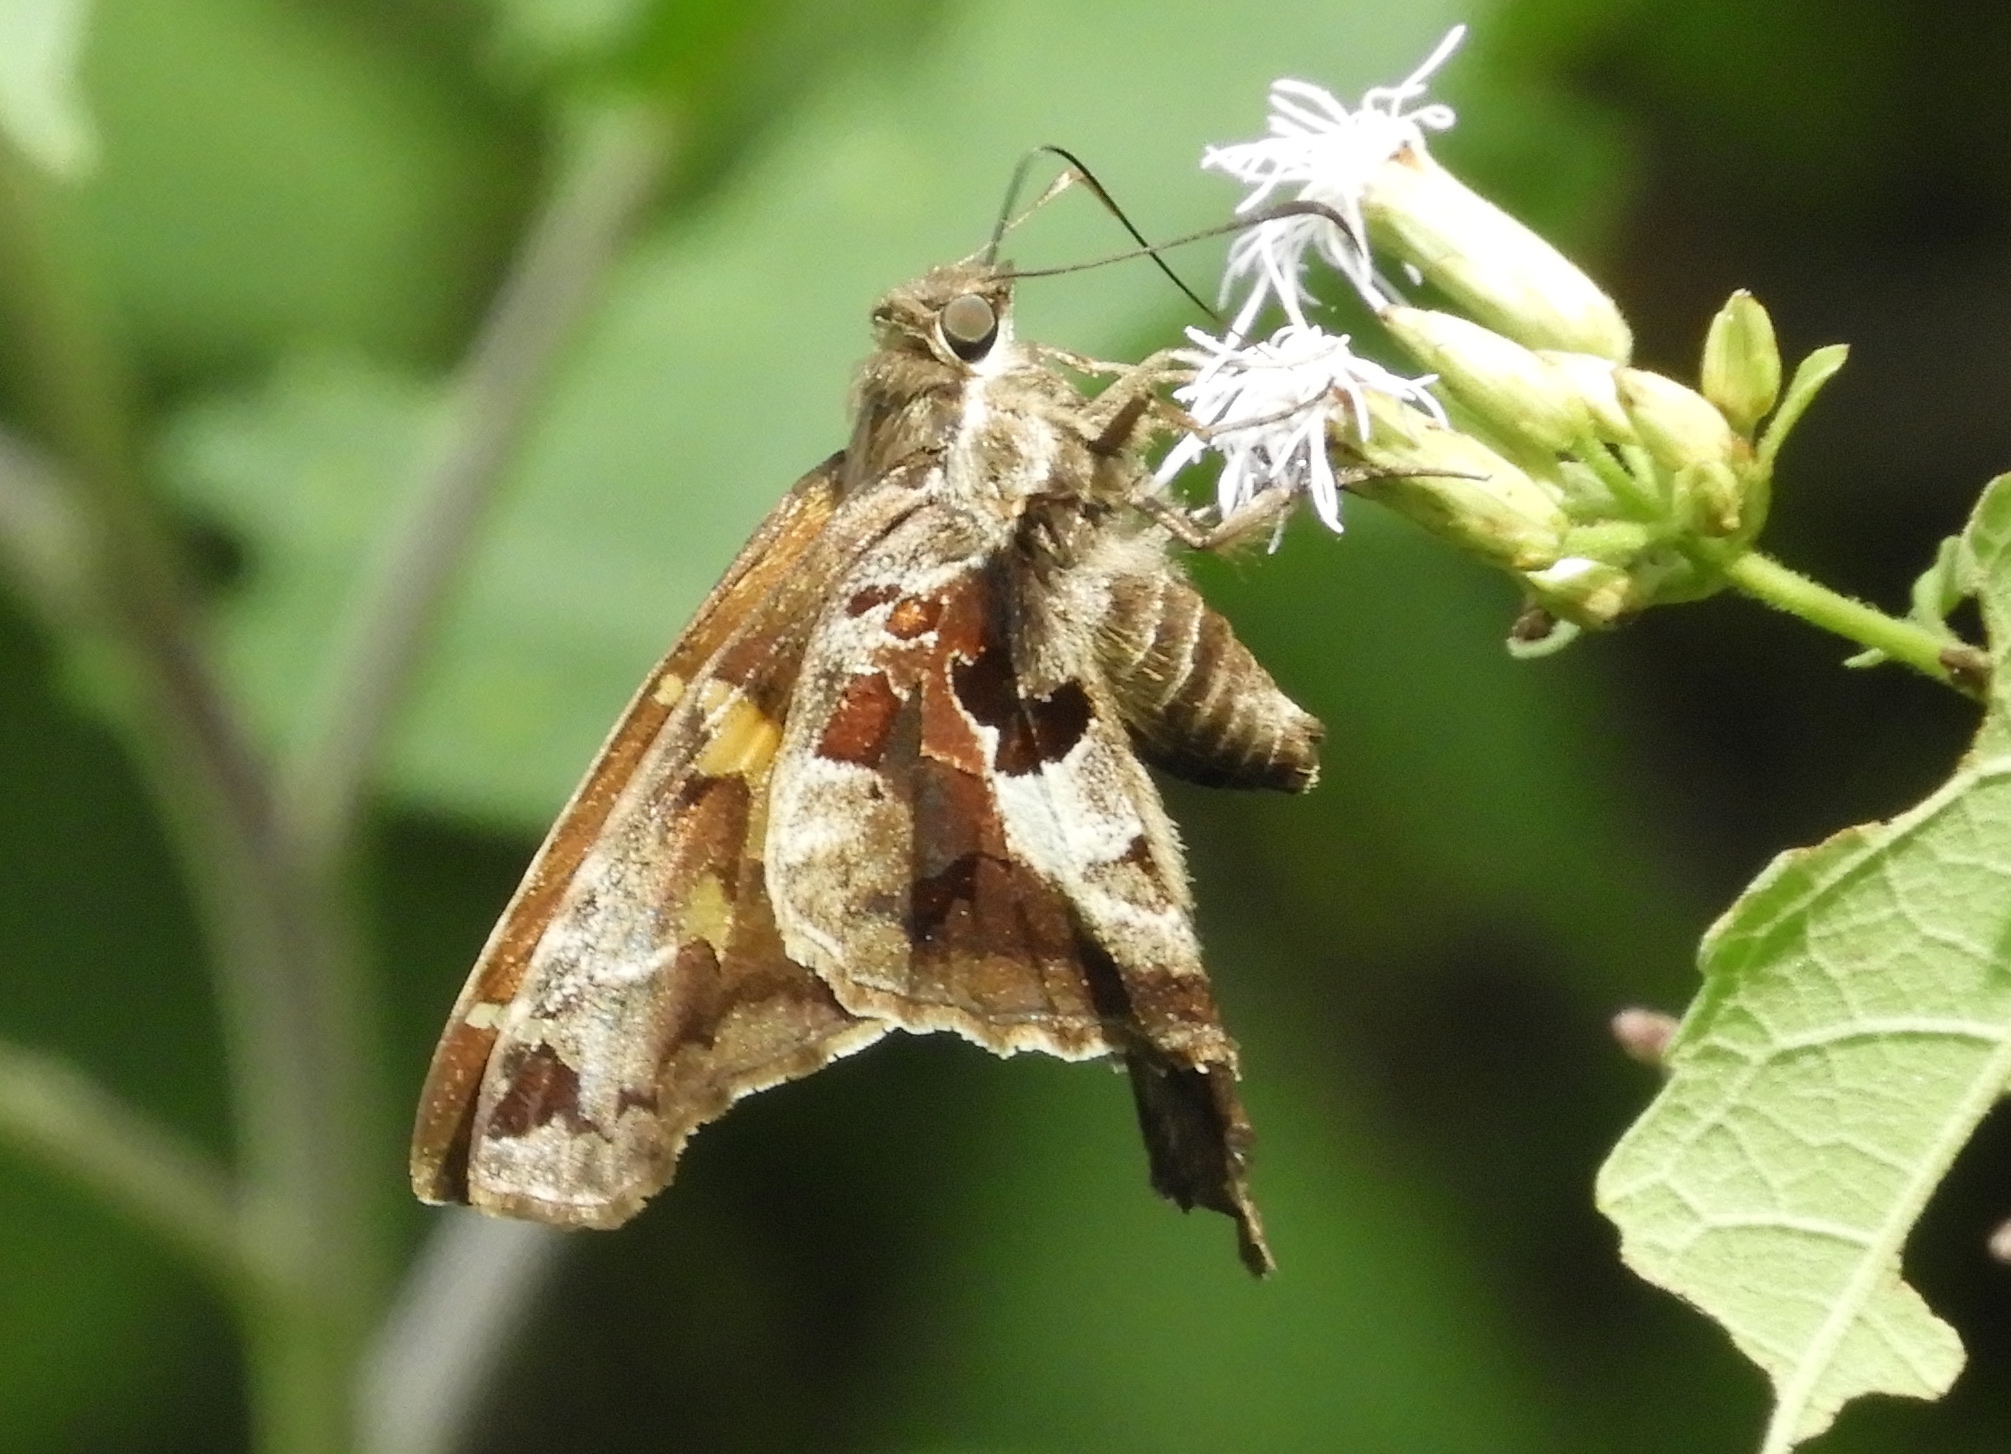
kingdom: Animalia
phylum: Arthropoda
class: Insecta
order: Lepidoptera
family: Hesperiidae
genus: Chioides
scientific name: Chioides zilpa
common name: Zilpa longtail
